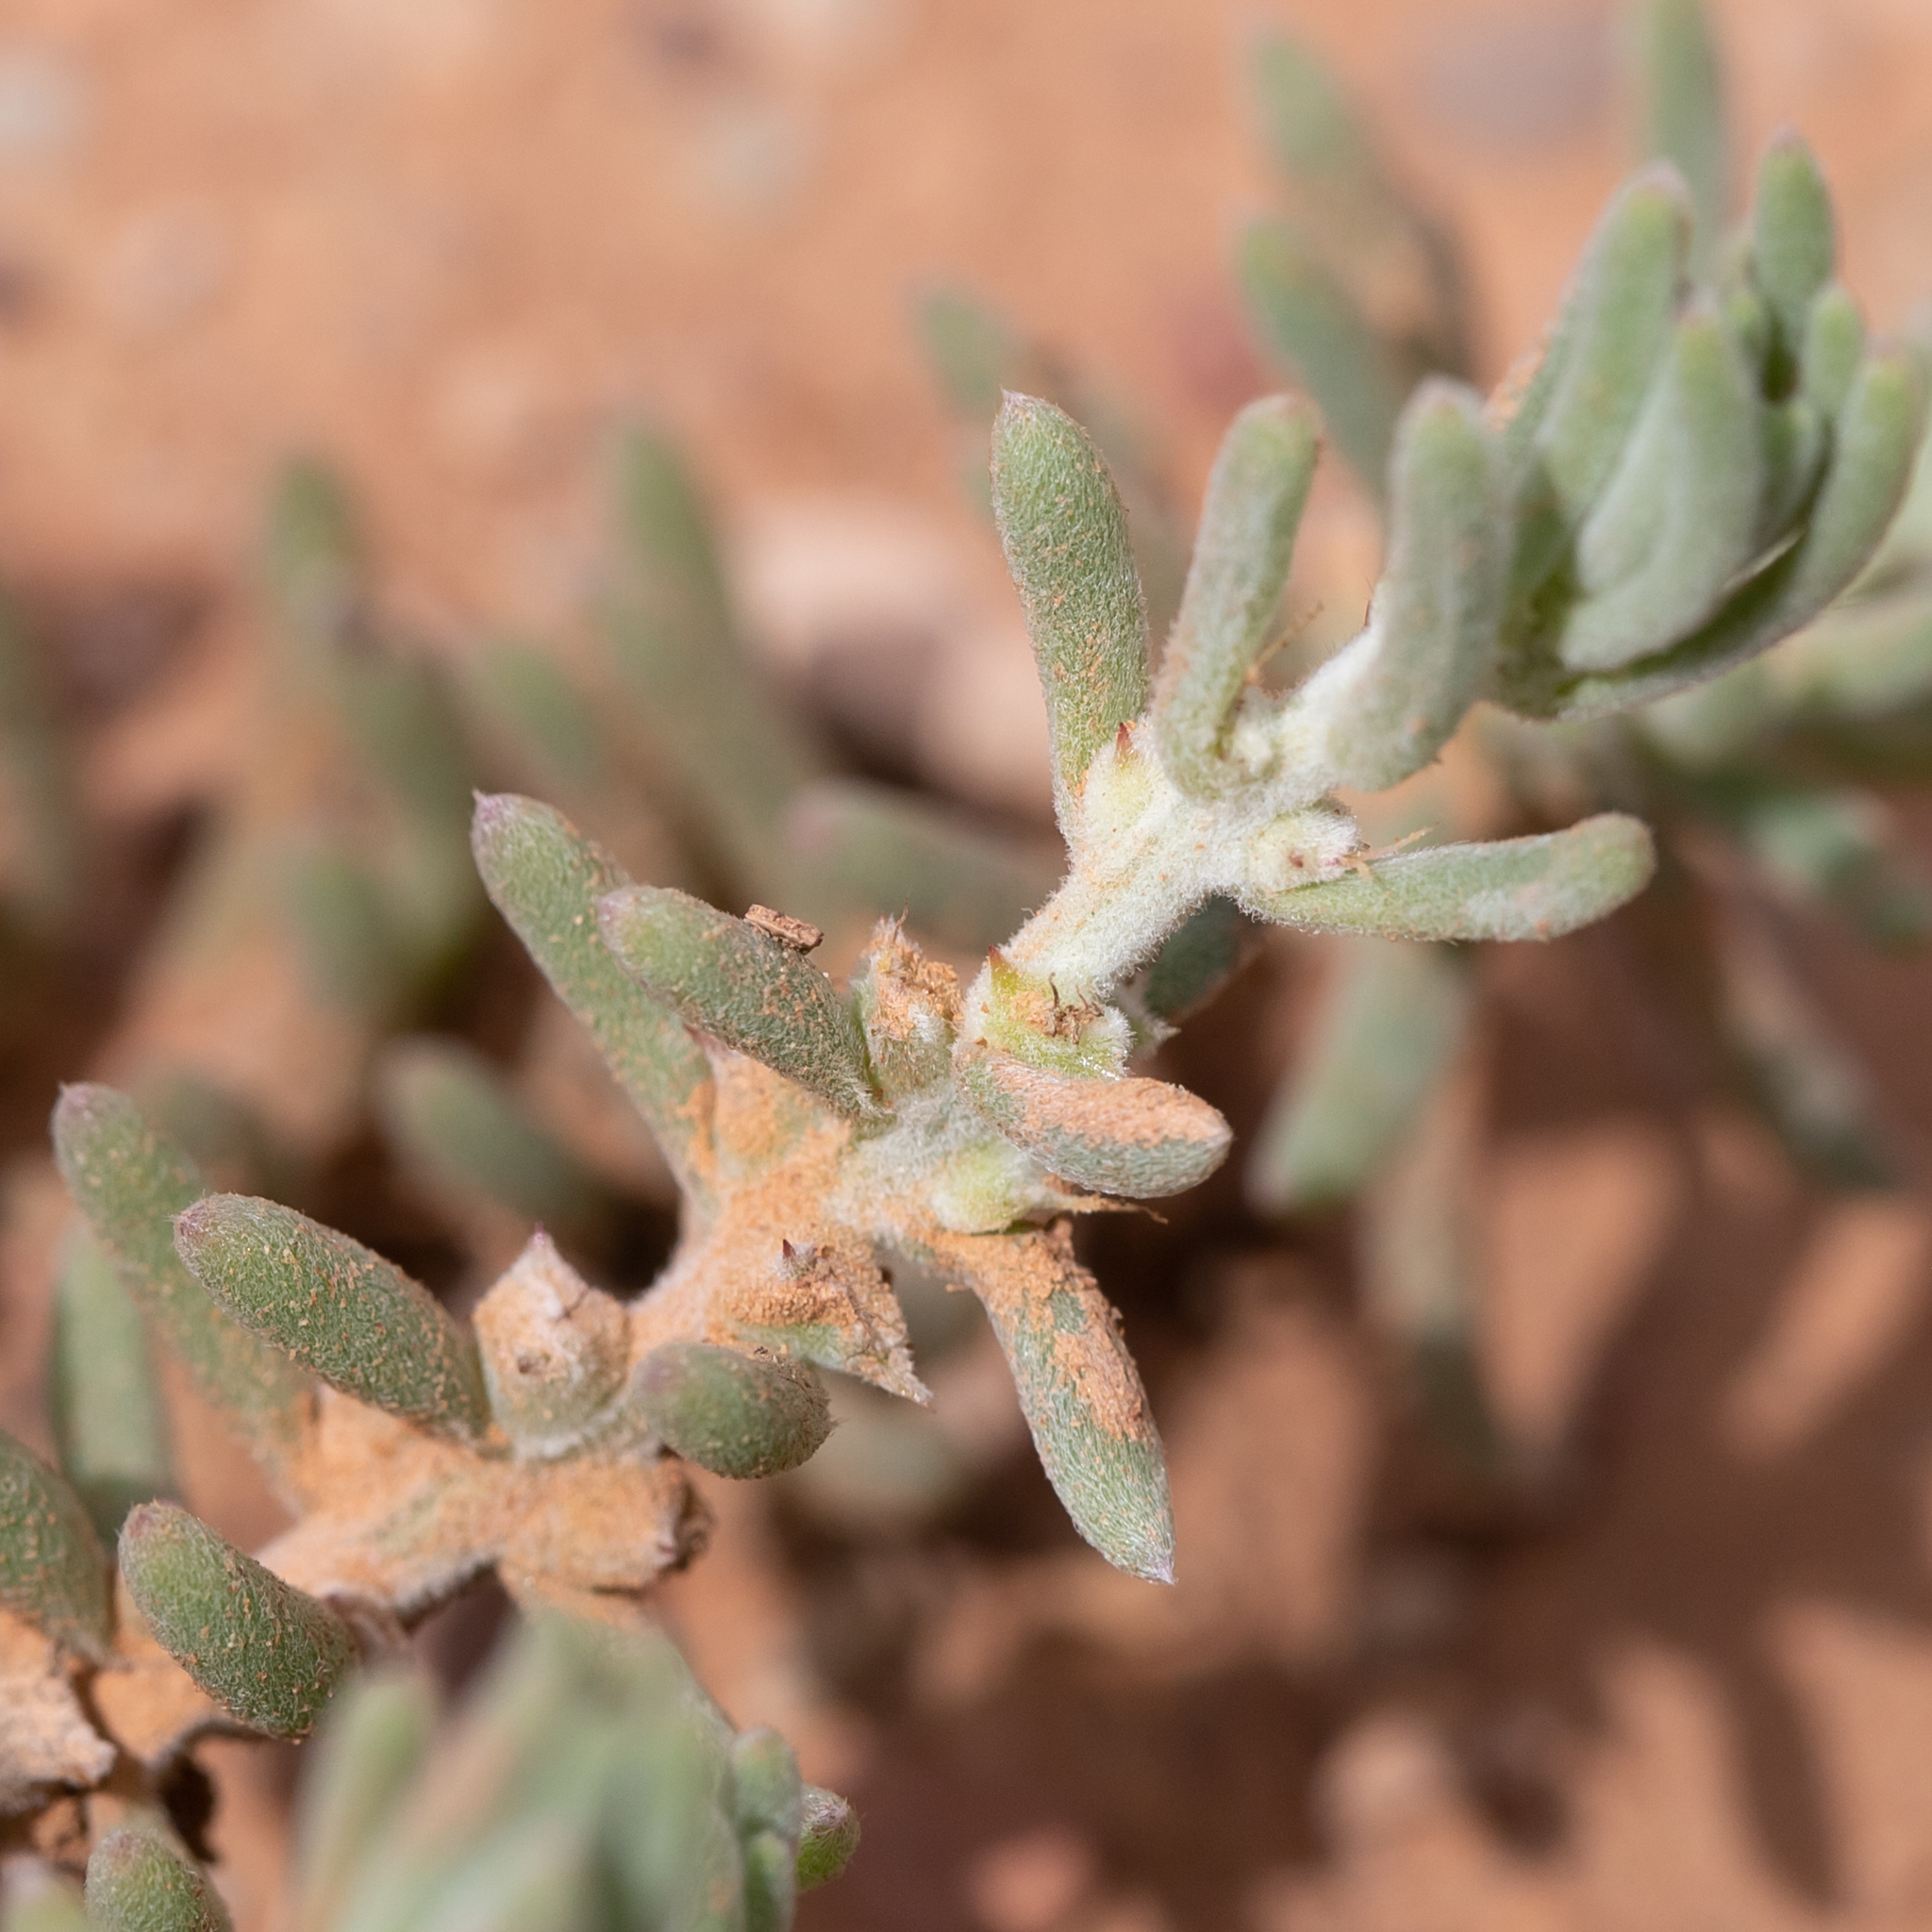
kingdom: Plantae
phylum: Tracheophyta
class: Magnoliopsida
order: Caryophyllales
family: Amaranthaceae
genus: Sclerolaena
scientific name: Sclerolaena diacantha
